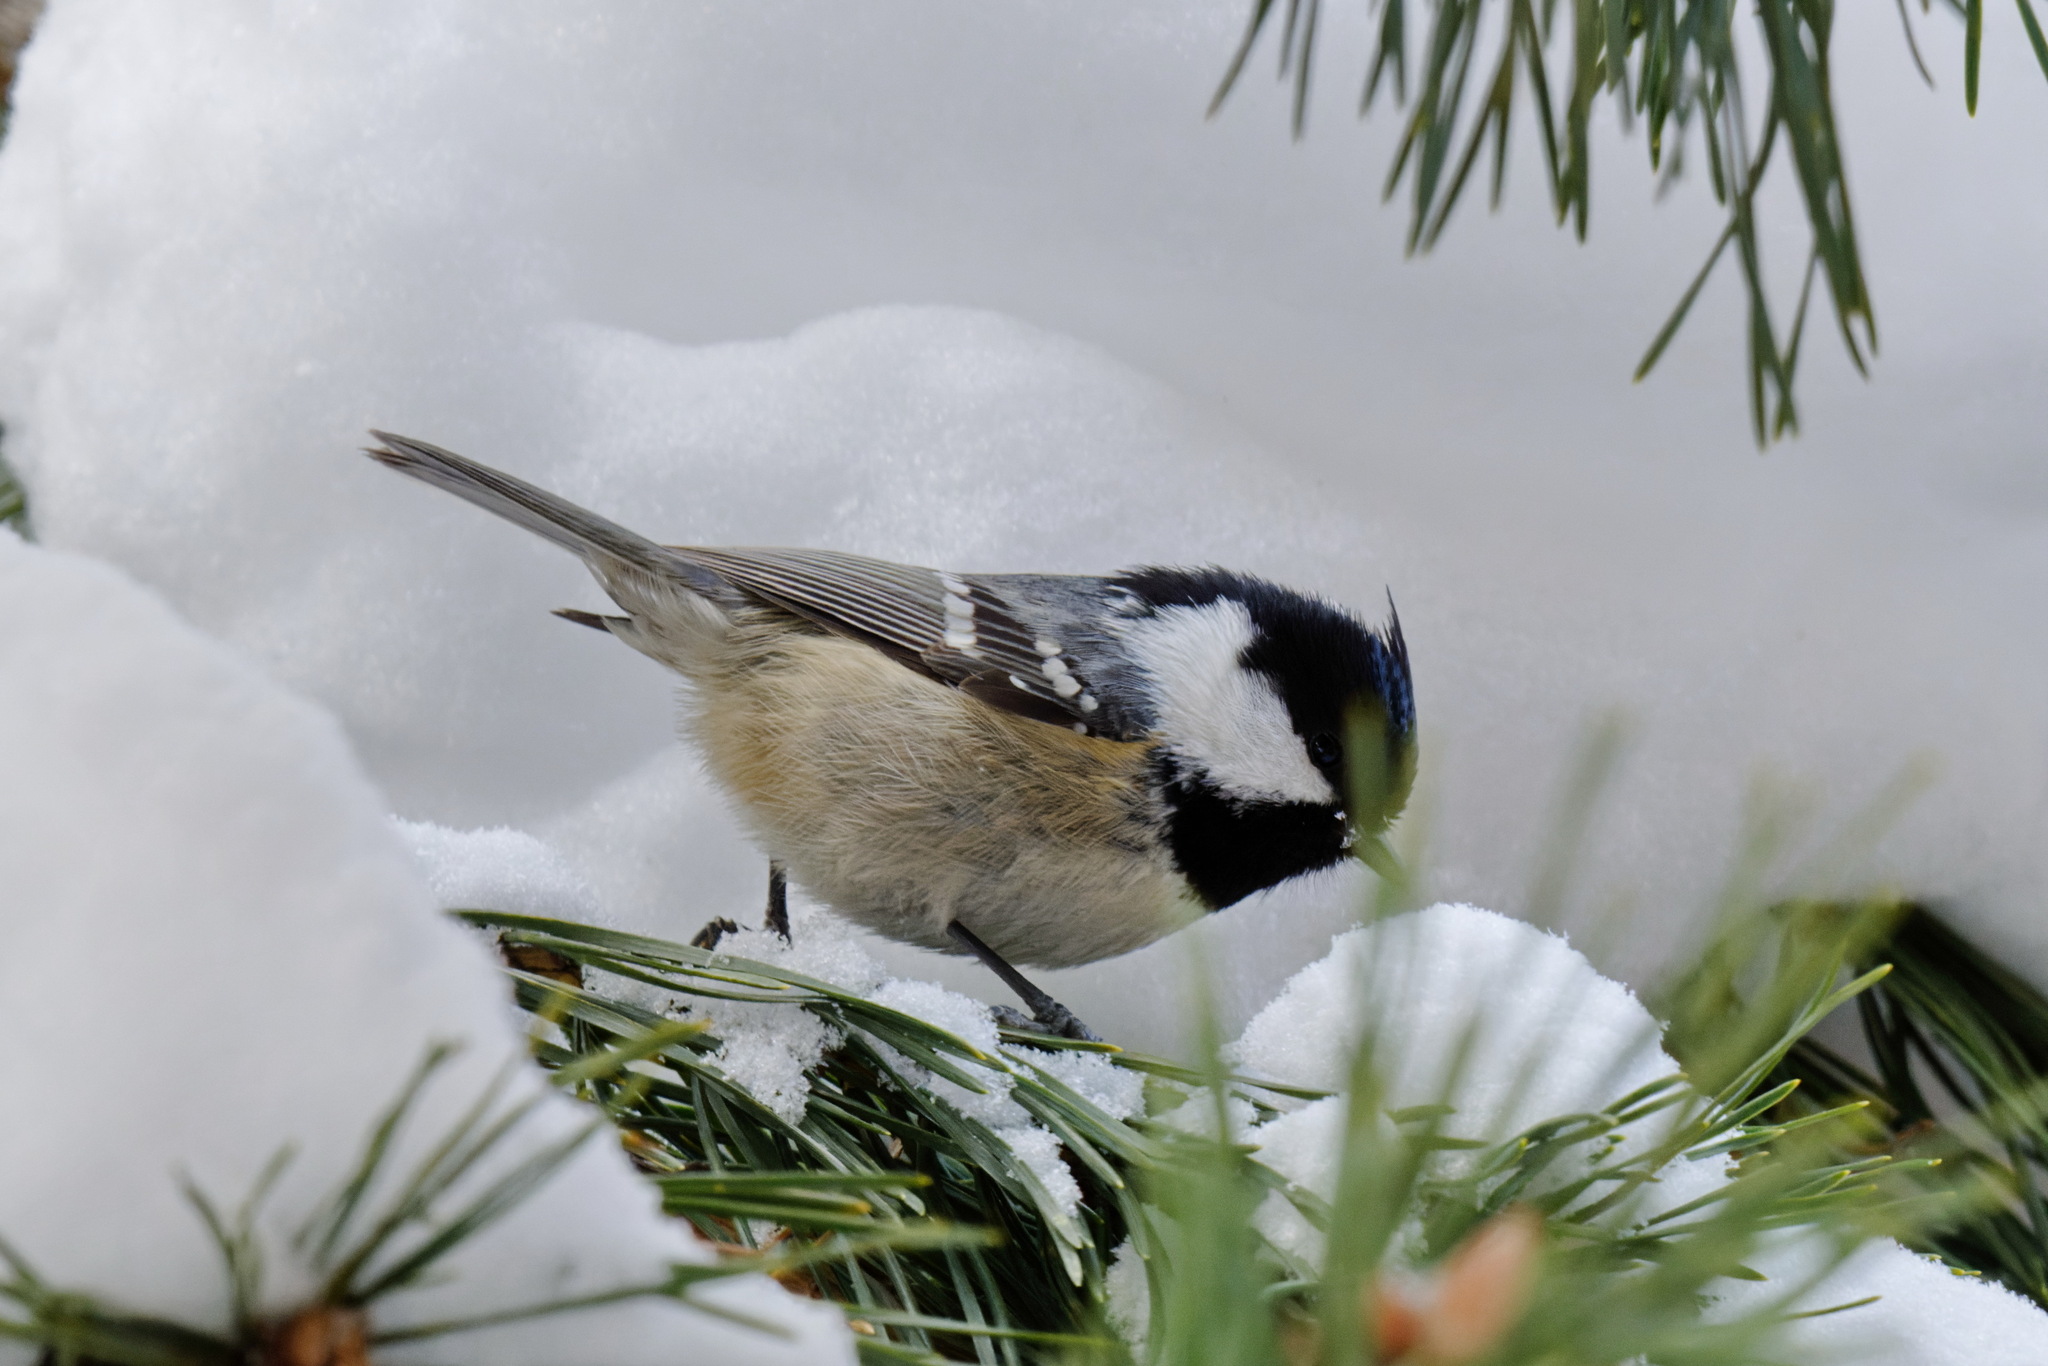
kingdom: Animalia
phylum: Chordata
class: Aves
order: Passeriformes
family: Paridae
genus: Periparus
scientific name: Periparus ater
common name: Coal tit
